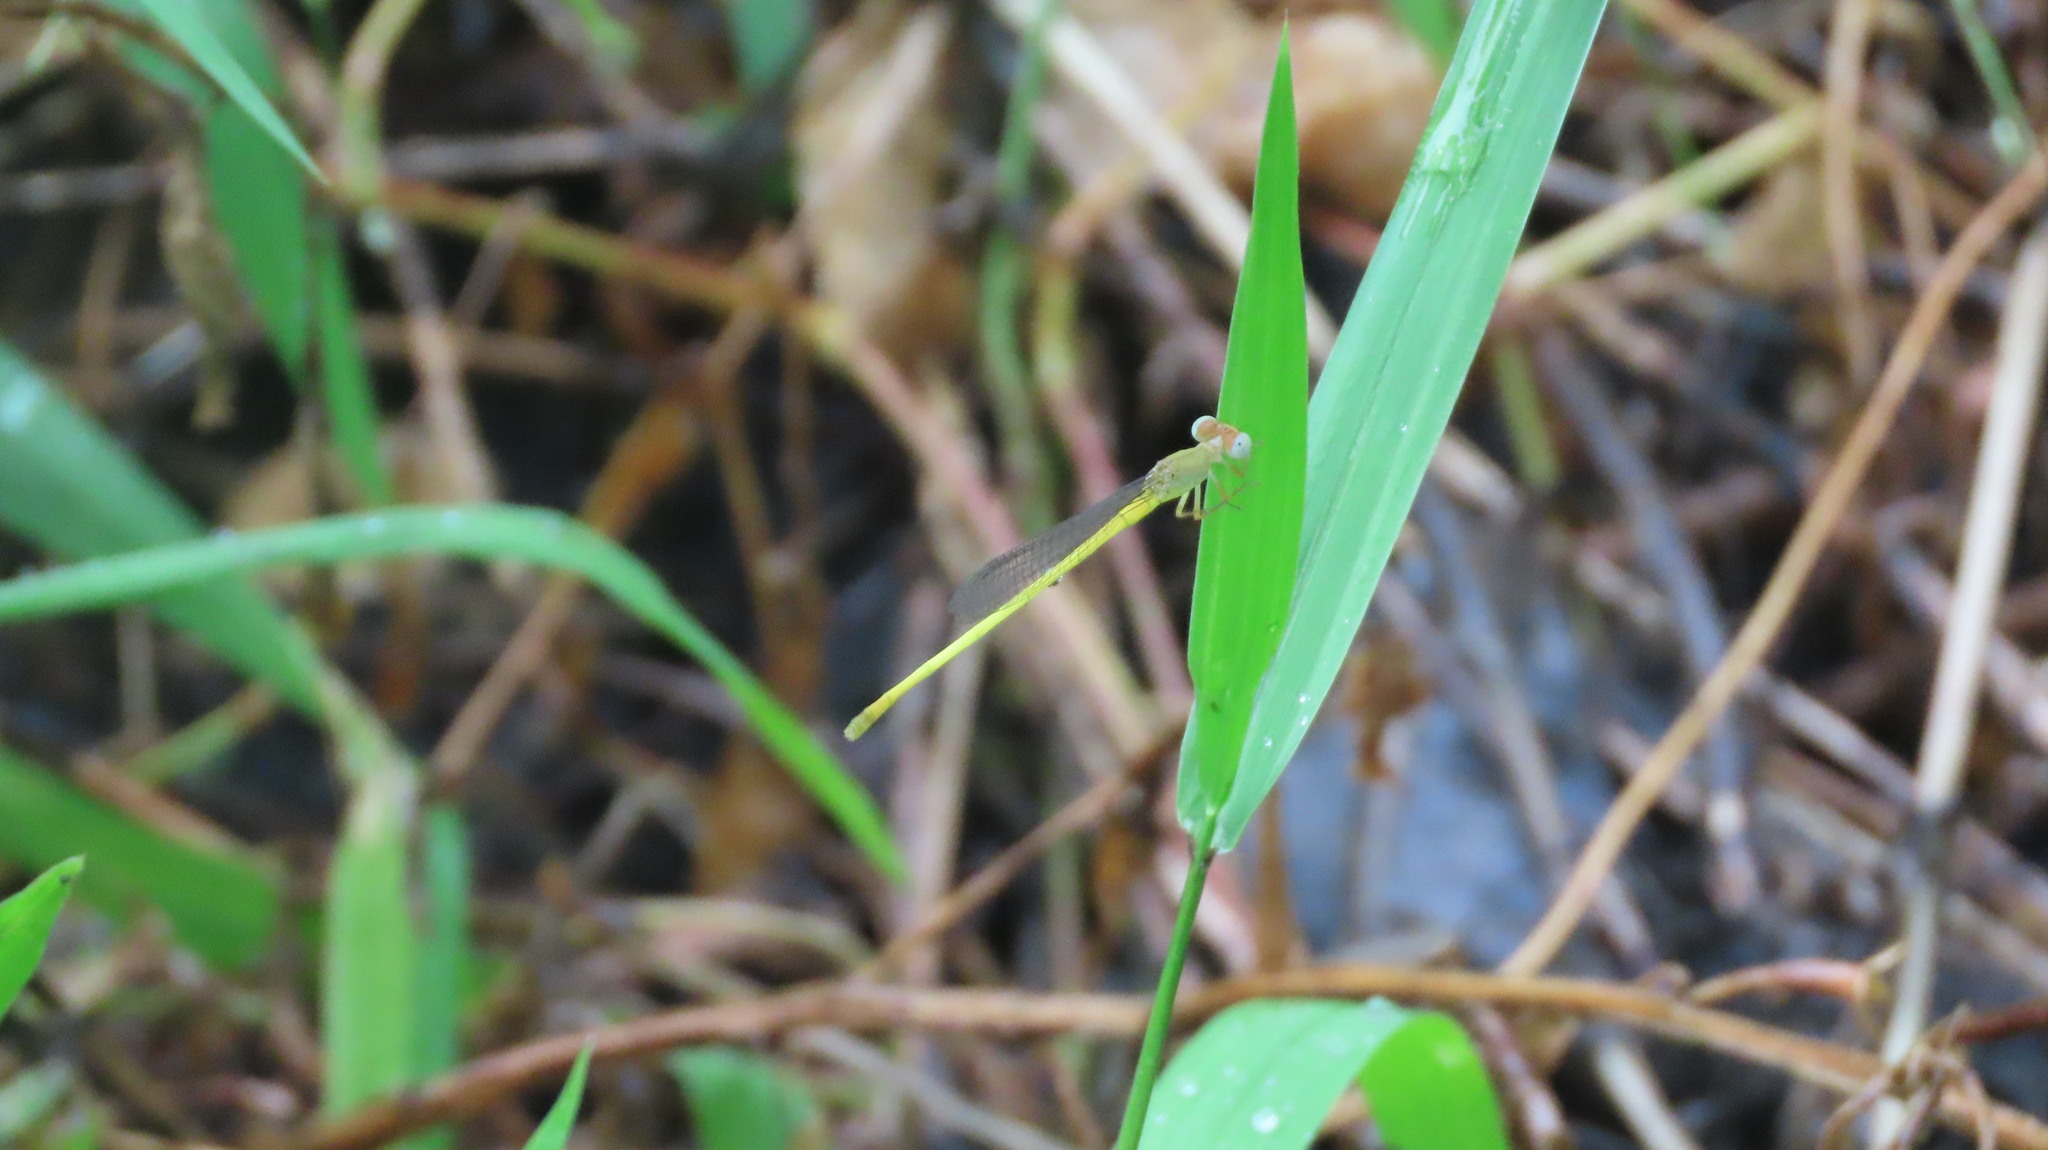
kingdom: Animalia
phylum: Arthropoda
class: Insecta
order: Odonata
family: Coenagrionidae
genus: Ceriagrion
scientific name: Ceriagrion coromandelianum
